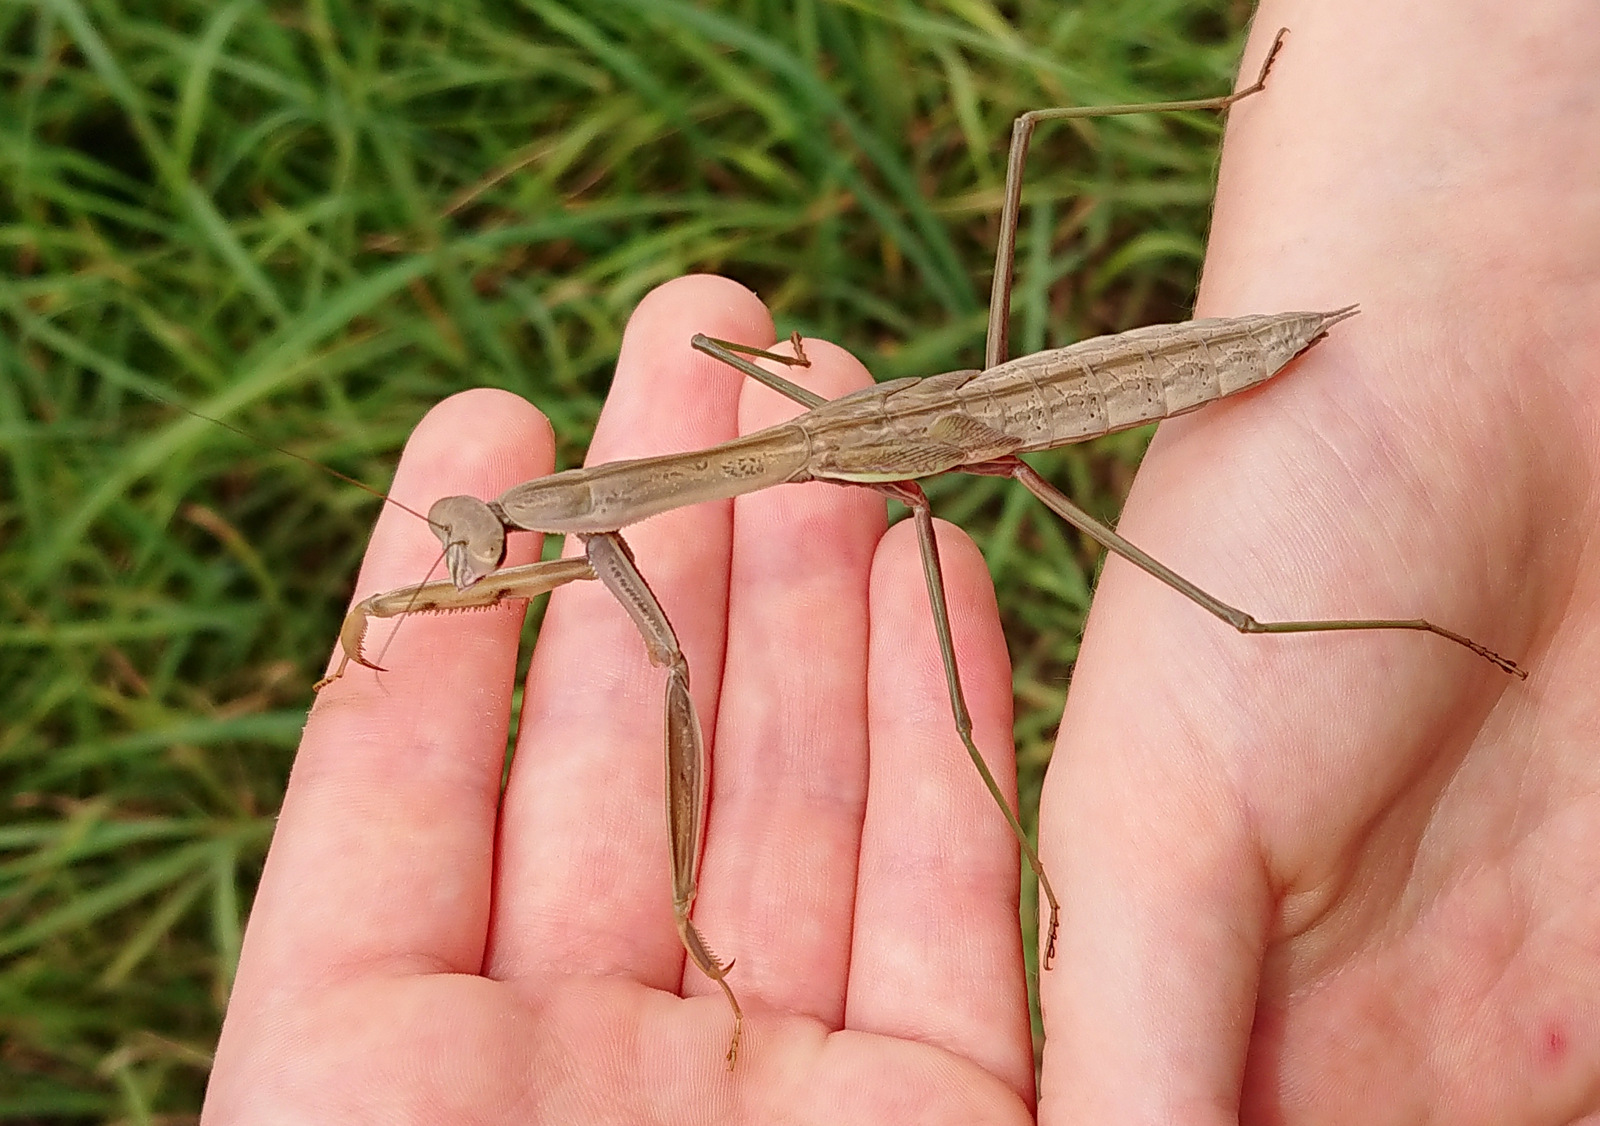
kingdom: Animalia
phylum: Arthropoda
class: Insecta
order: Mantodea
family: Mantidae
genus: Tenodera
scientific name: Tenodera sinensis
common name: Chinese mantis
